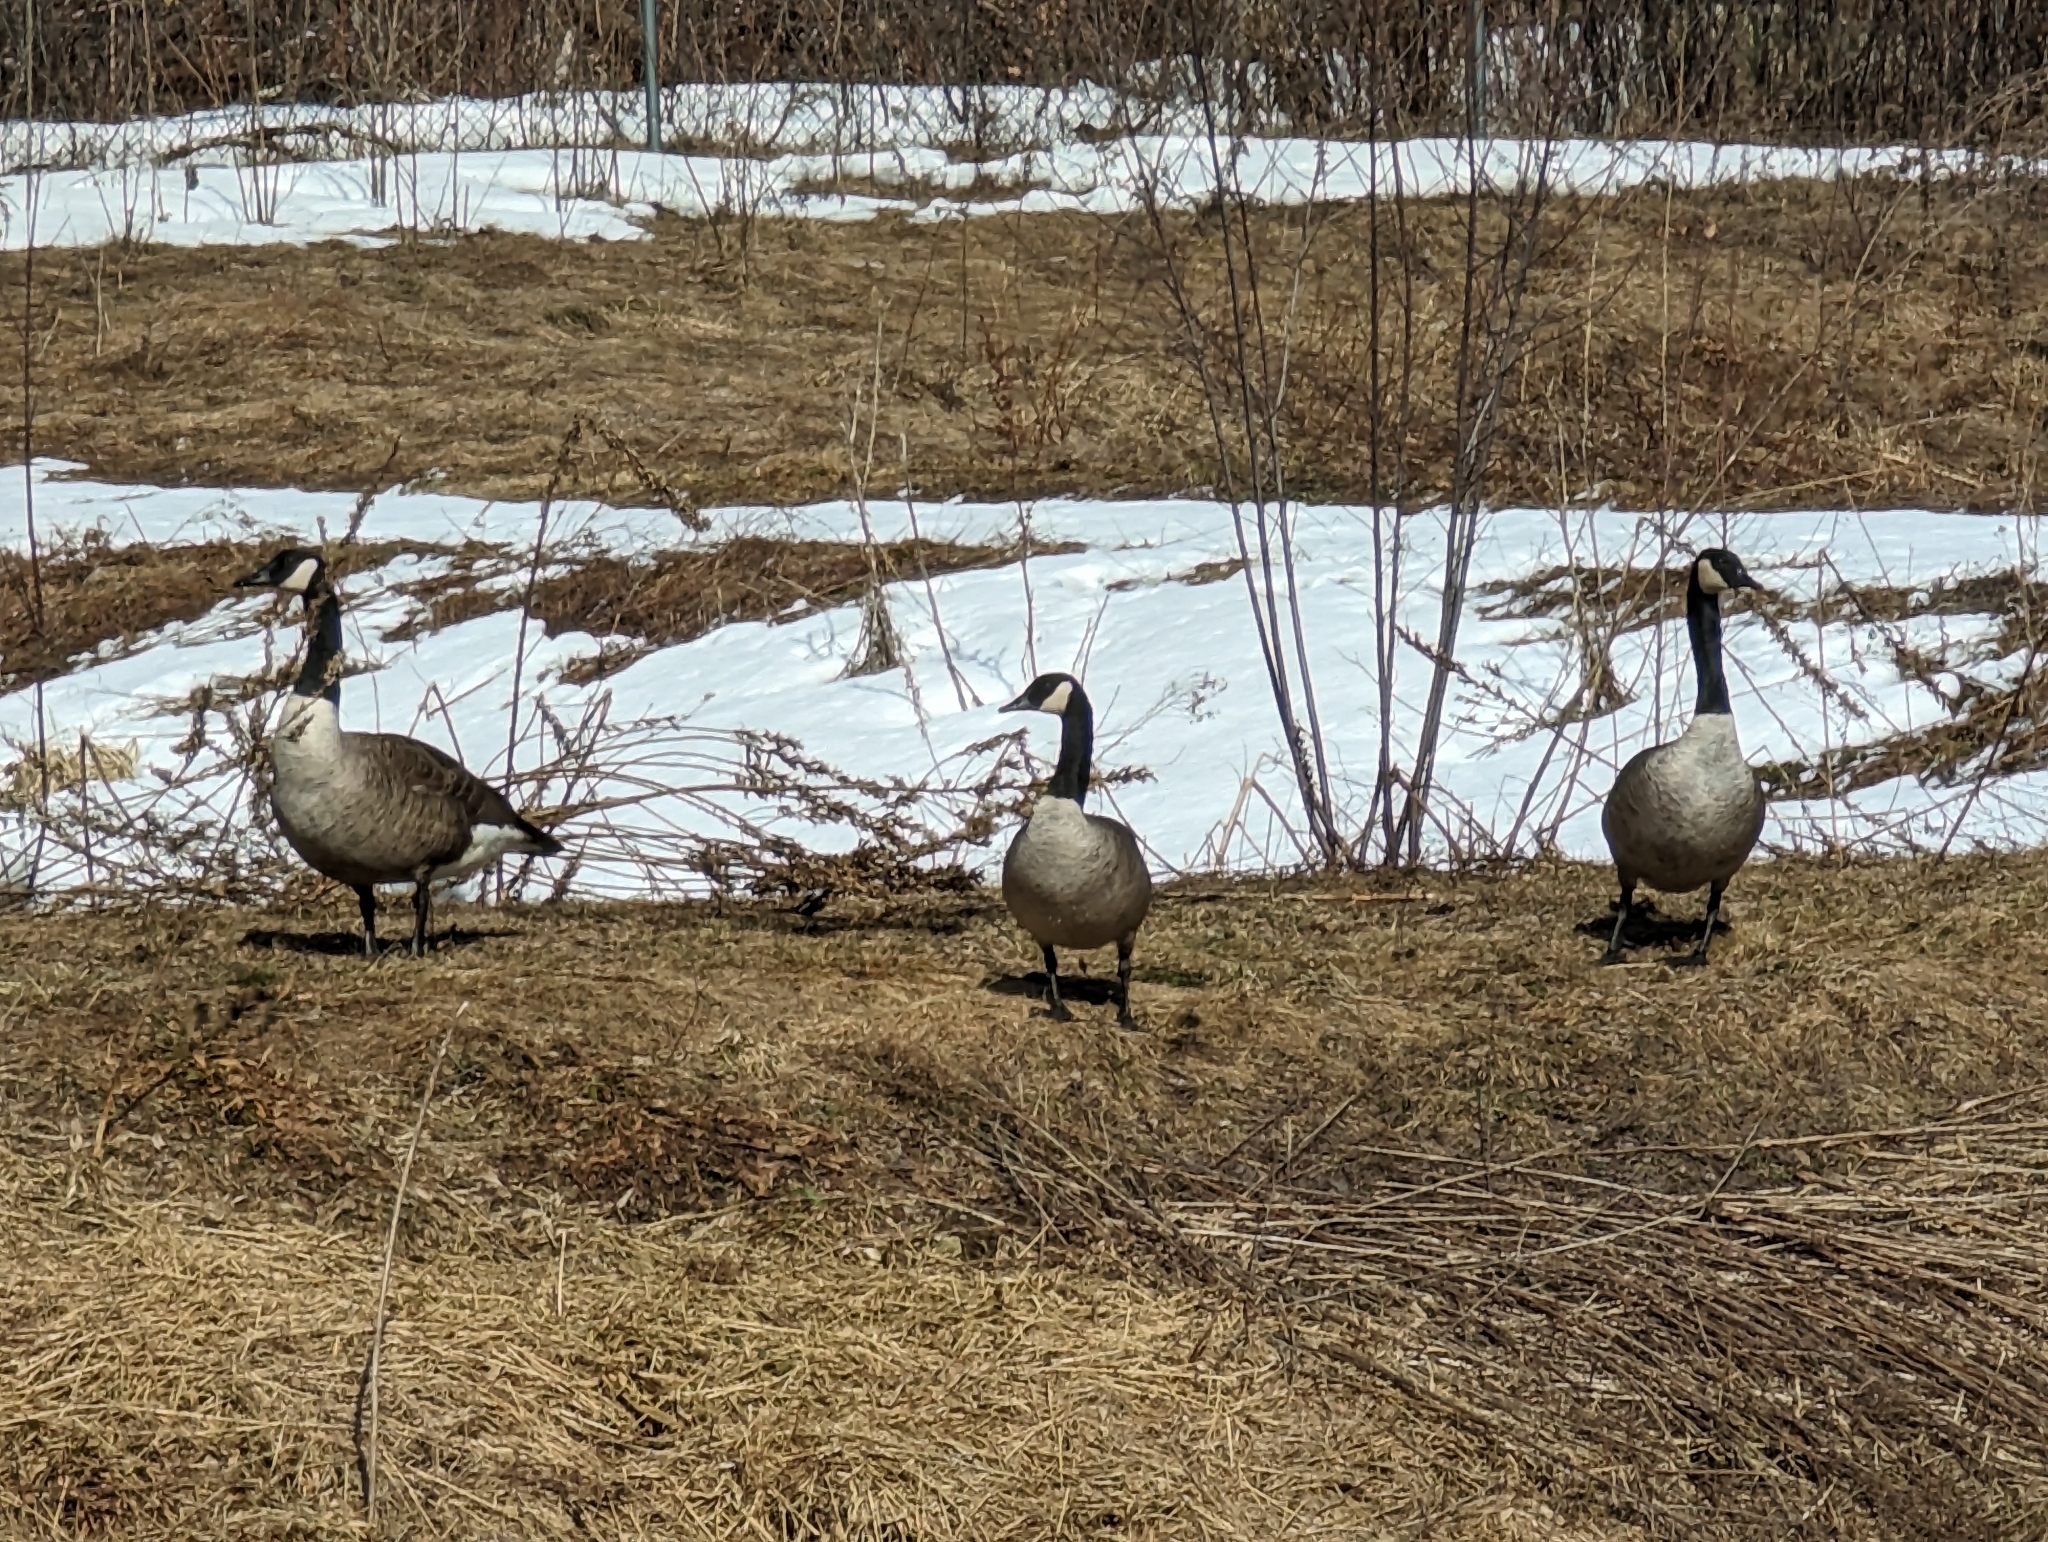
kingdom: Animalia
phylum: Chordata
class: Aves
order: Anseriformes
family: Anatidae
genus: Branta
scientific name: Branta canadensis
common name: Canada goose
